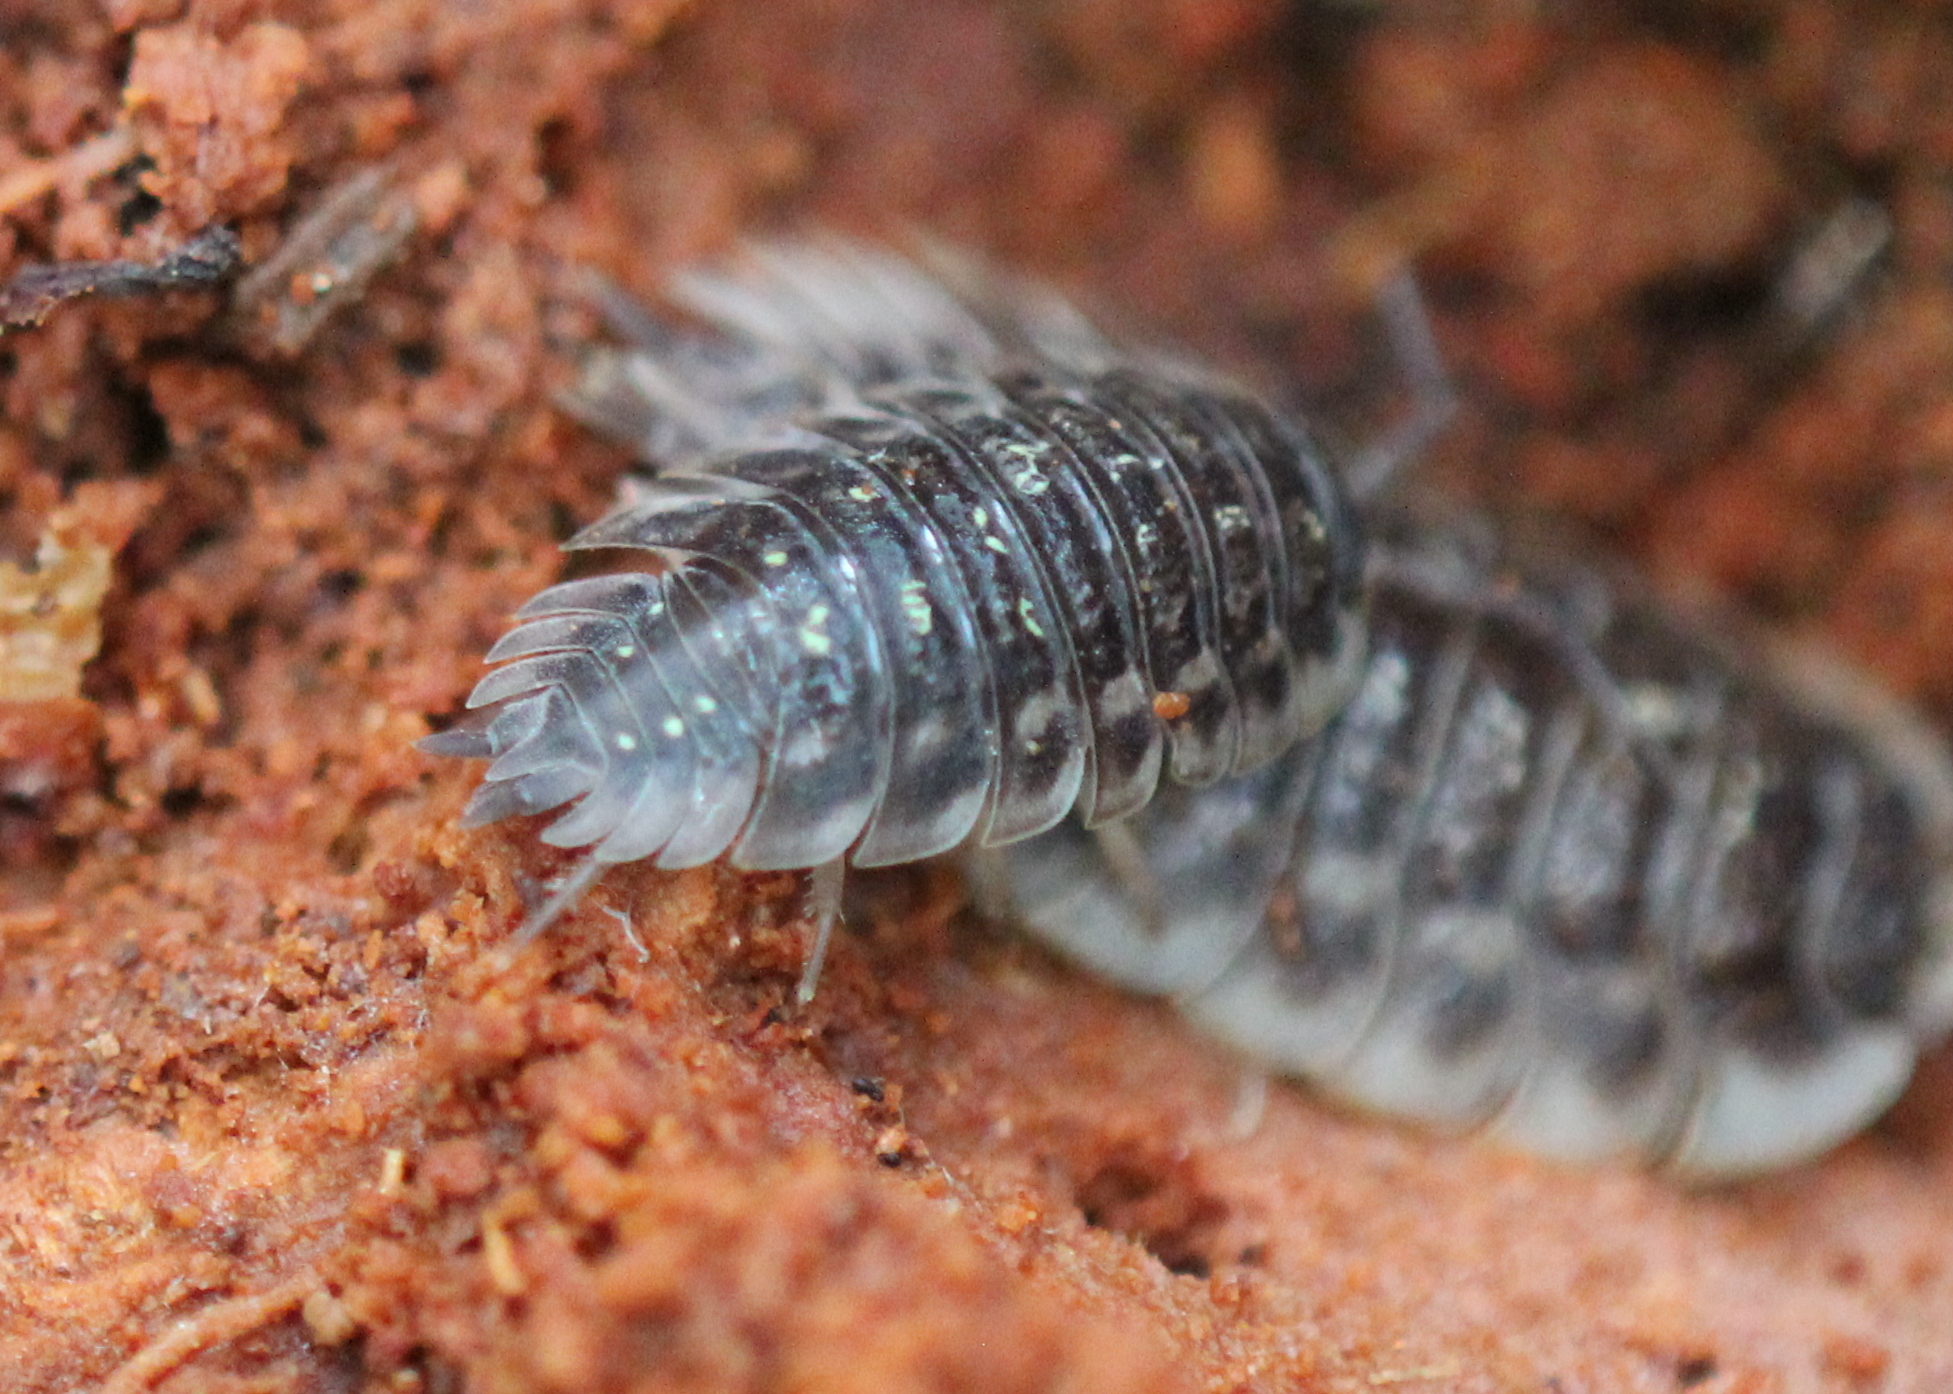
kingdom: Animalia
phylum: Arthropoda
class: Malacostraca
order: Isopoda
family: Oniscidae
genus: Oniscus
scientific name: Oniscus asellus
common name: Common shiny woodlouse
